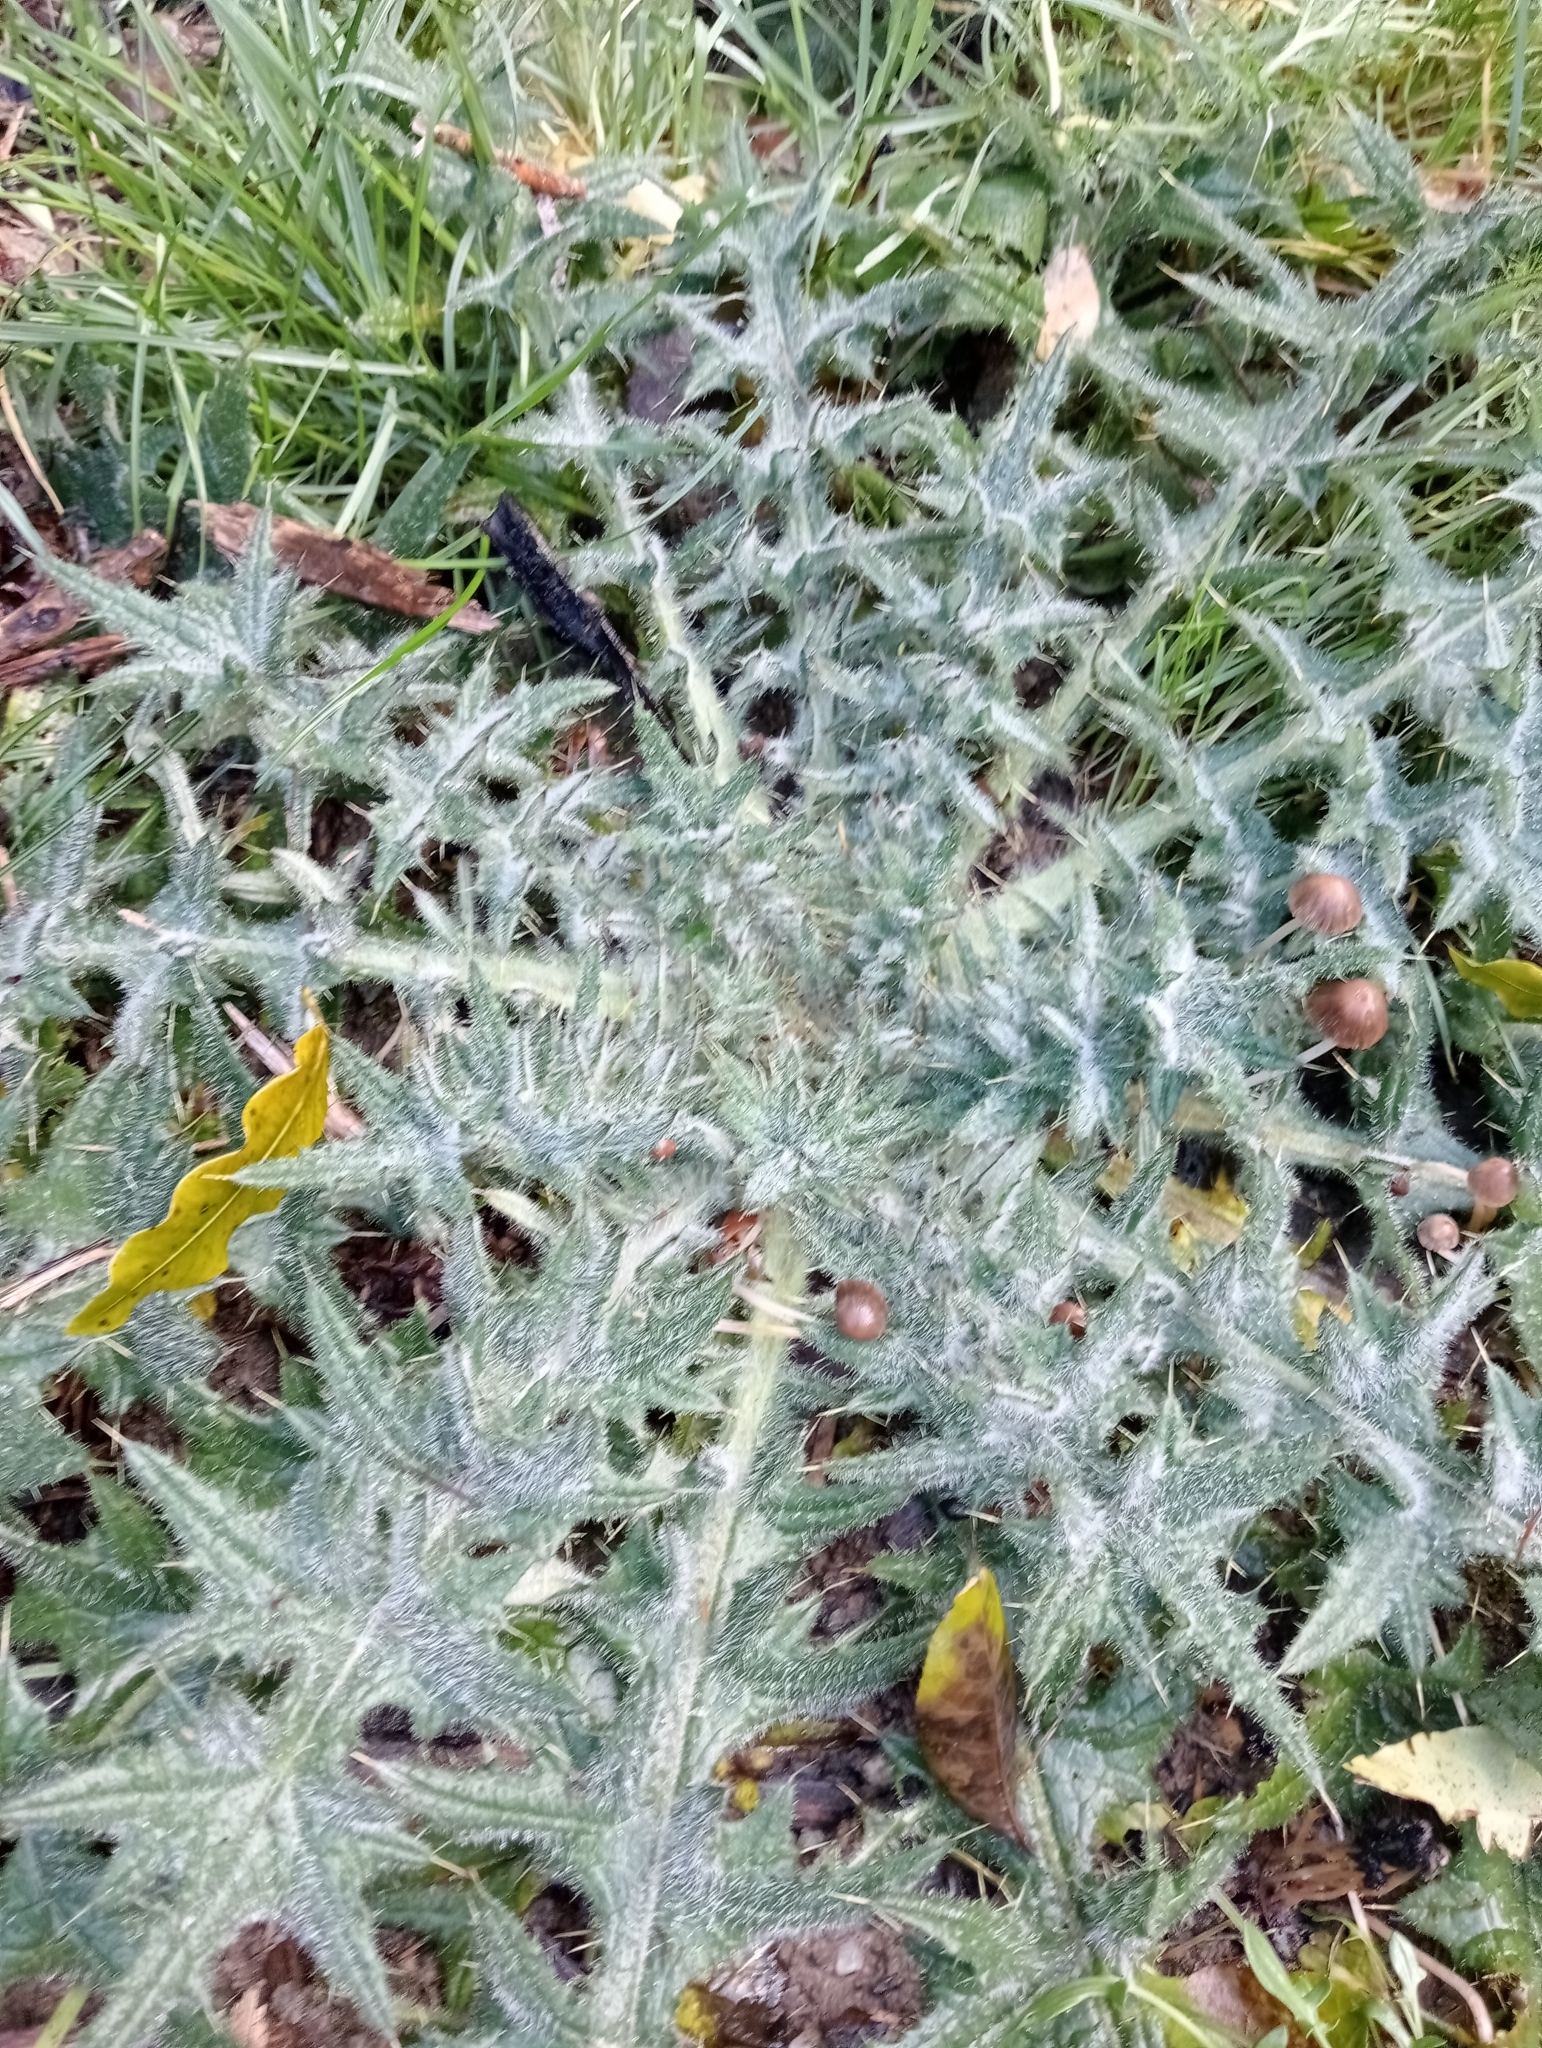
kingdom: Plantae
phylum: Tracheophyta
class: Magnoliopsida
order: Asterales
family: Asteraceae
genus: Cirsium
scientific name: Cirsium vulgare
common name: Bull thistle
